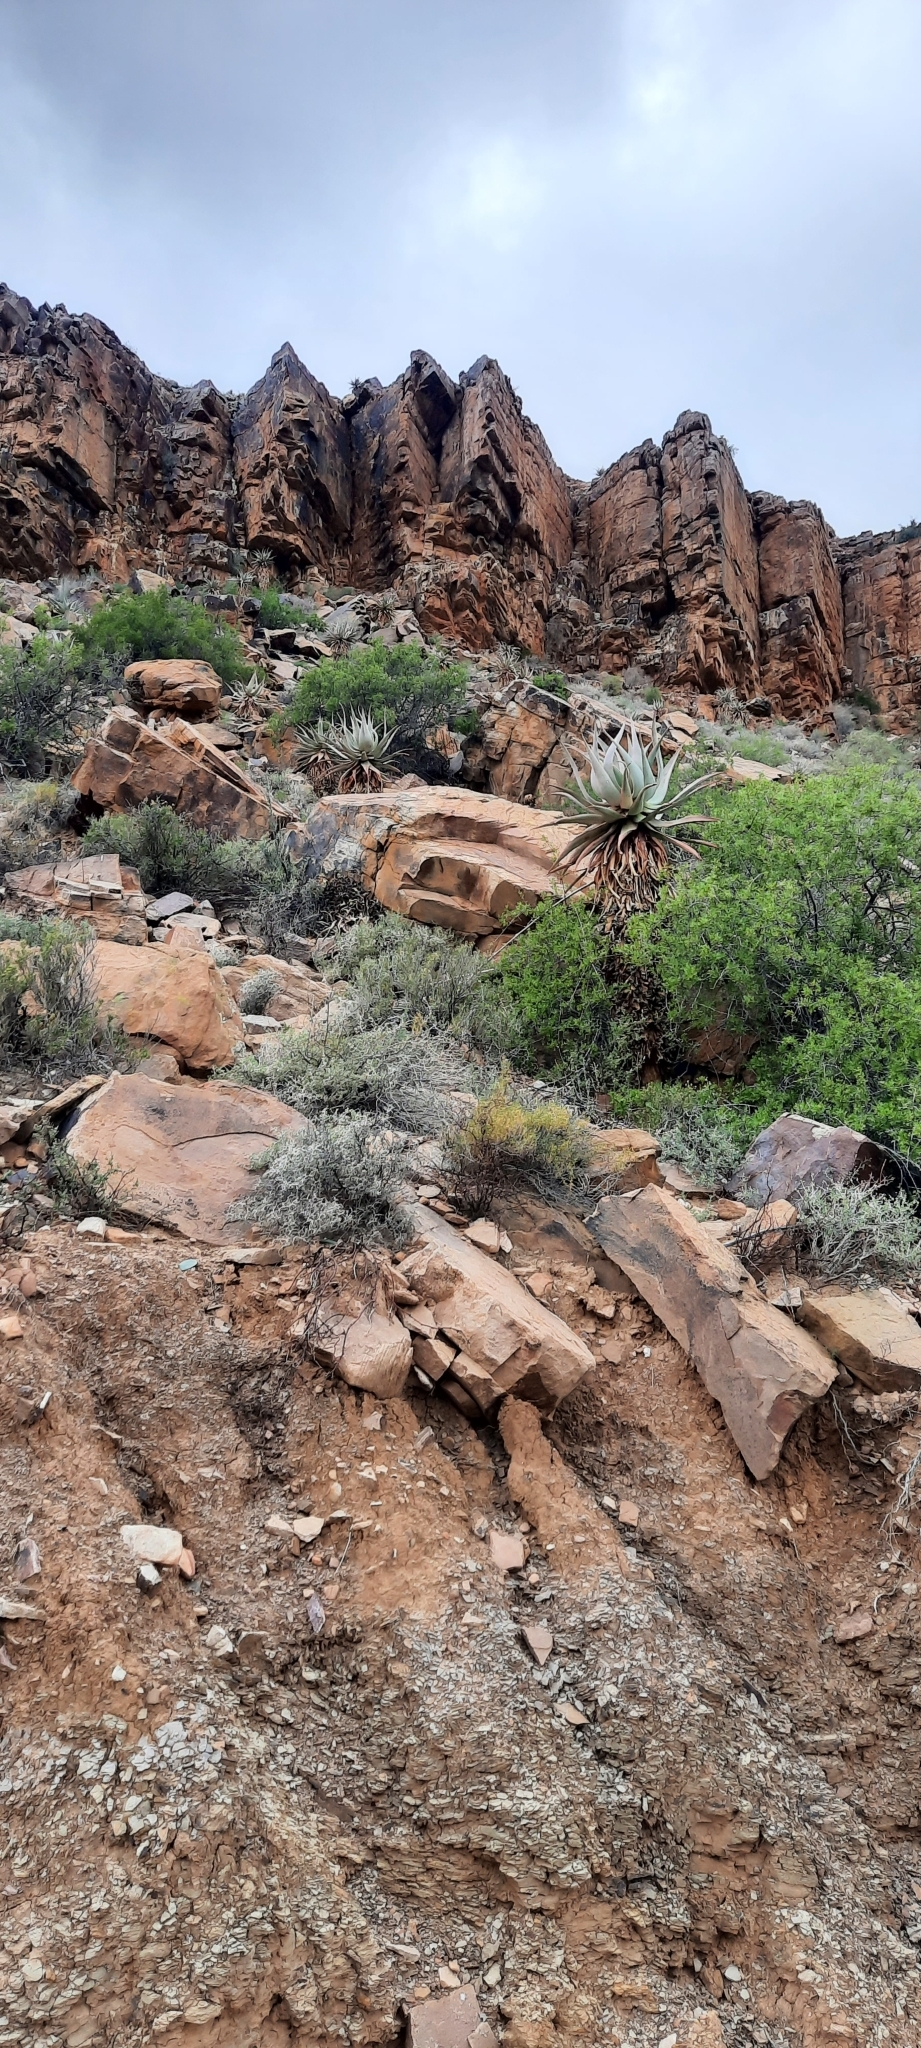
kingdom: Plantae
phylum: Tracheophyta
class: Liliopsida
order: Asparagales
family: Asphodelaceae
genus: Aloe
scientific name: Aloe comosa
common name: Clanwilliam aloe
